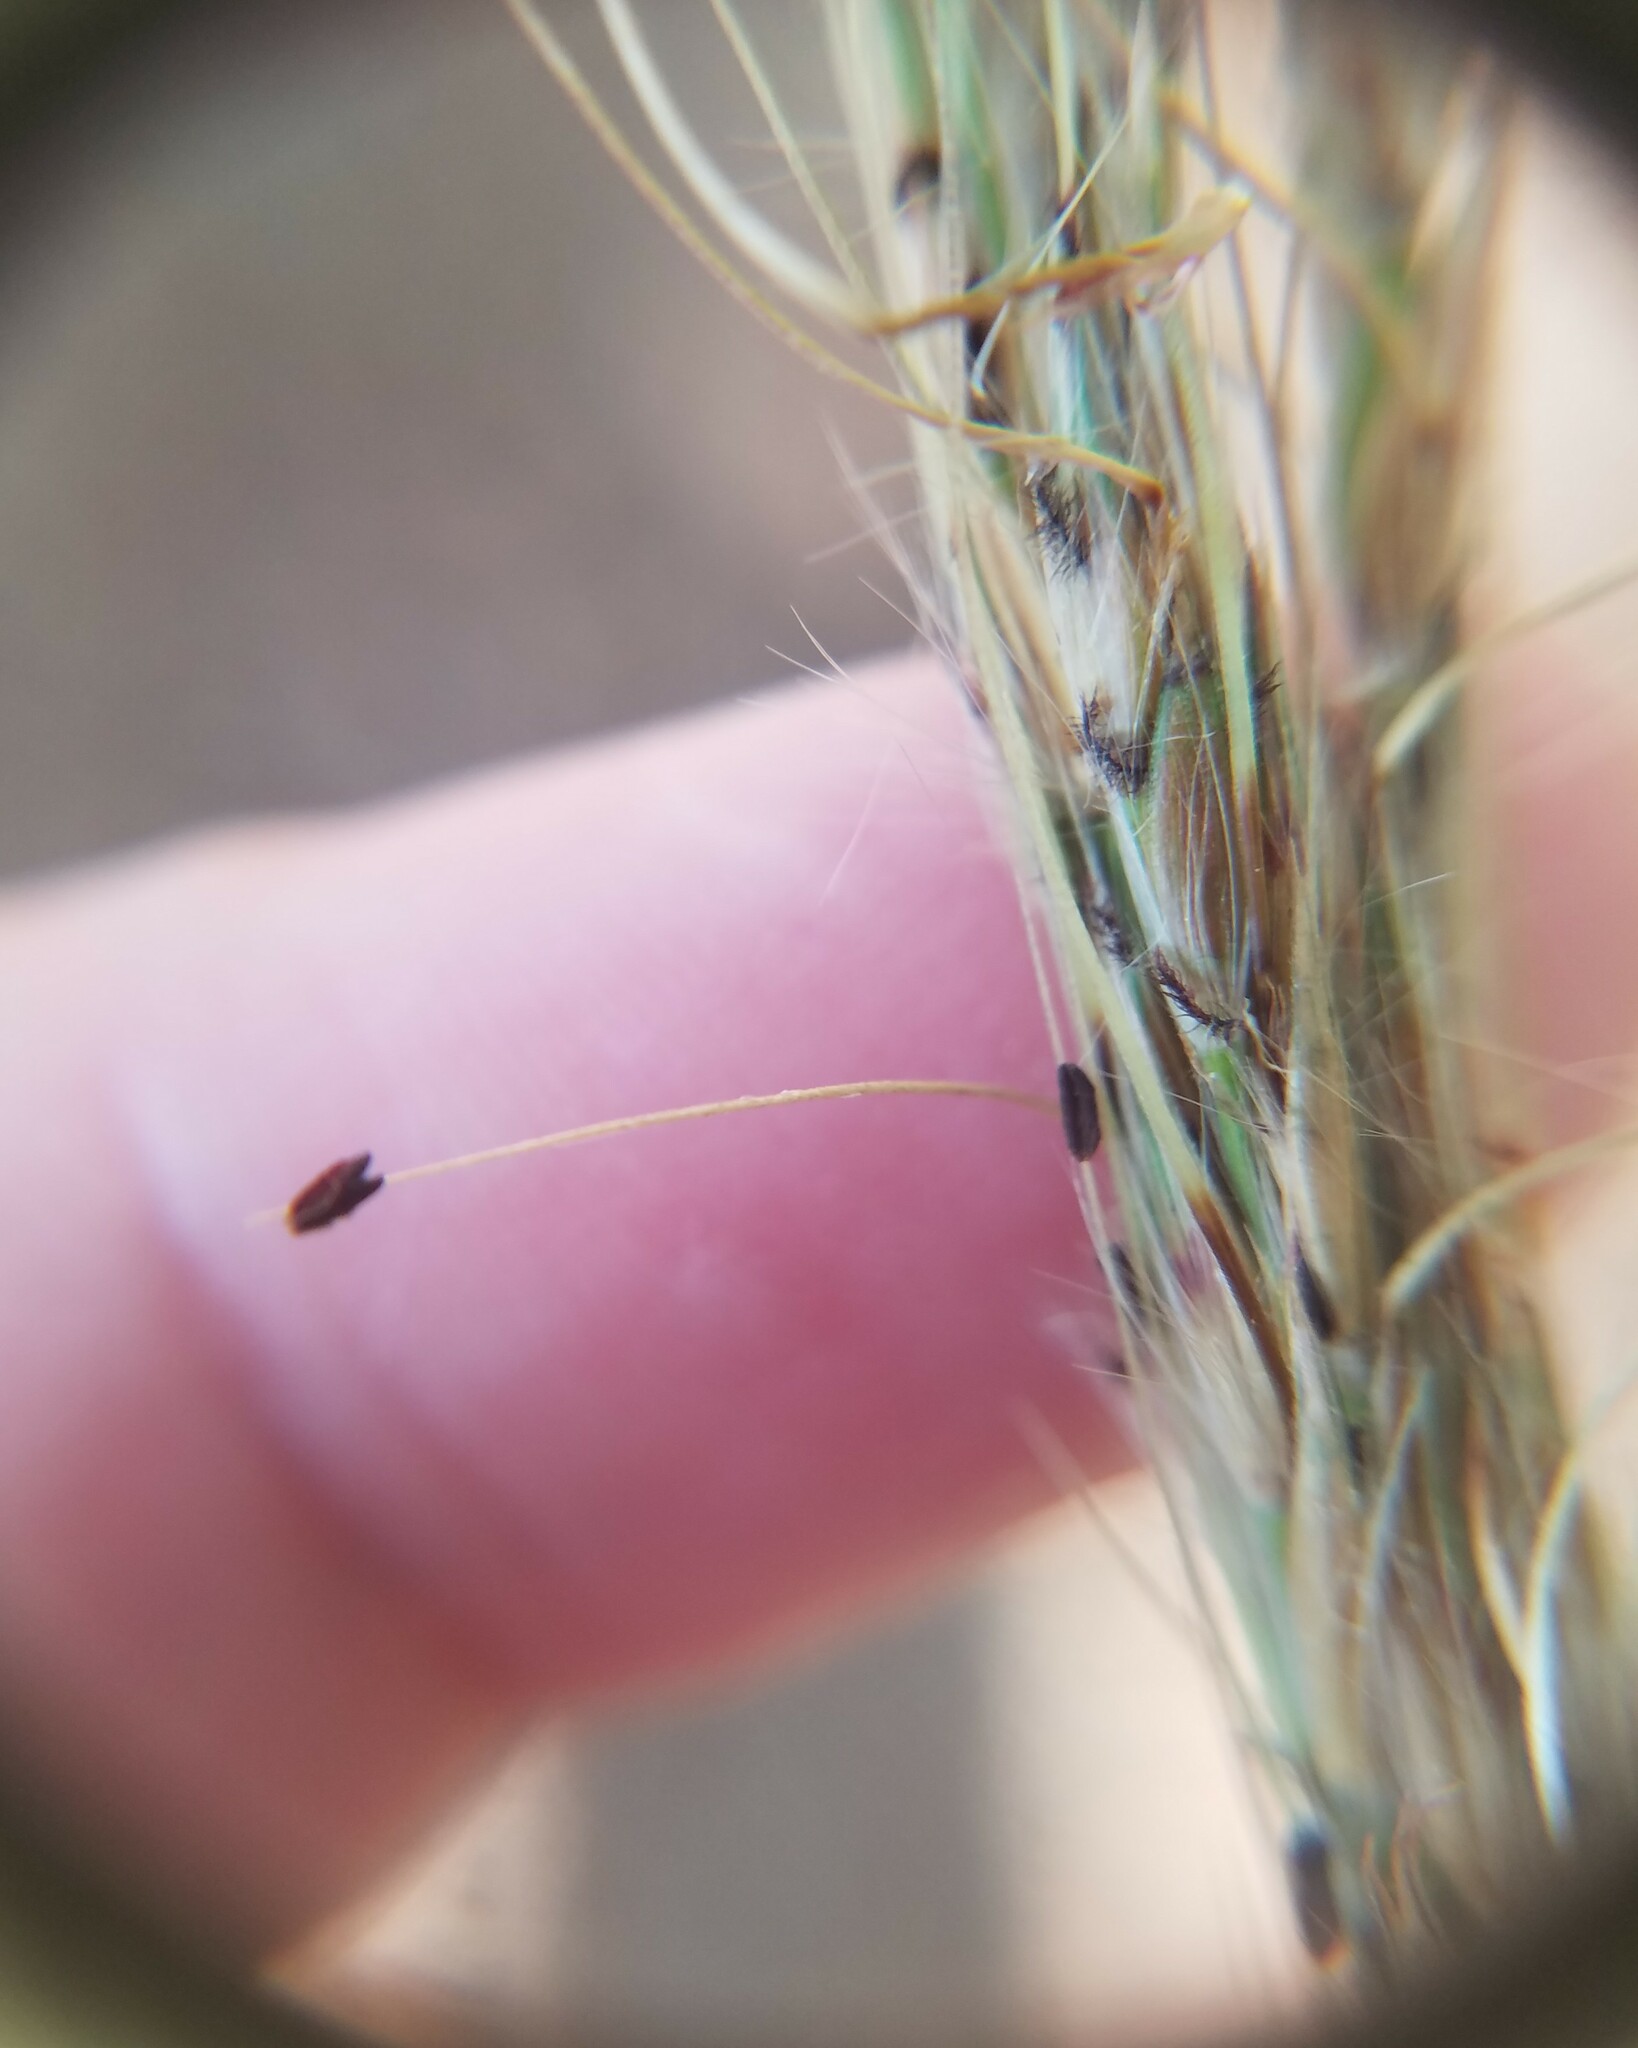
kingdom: Plantae
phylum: Tracheophyta
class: Liliopsida
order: Poales
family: Poaceae
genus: Erianthus
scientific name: Erianthus contortus
